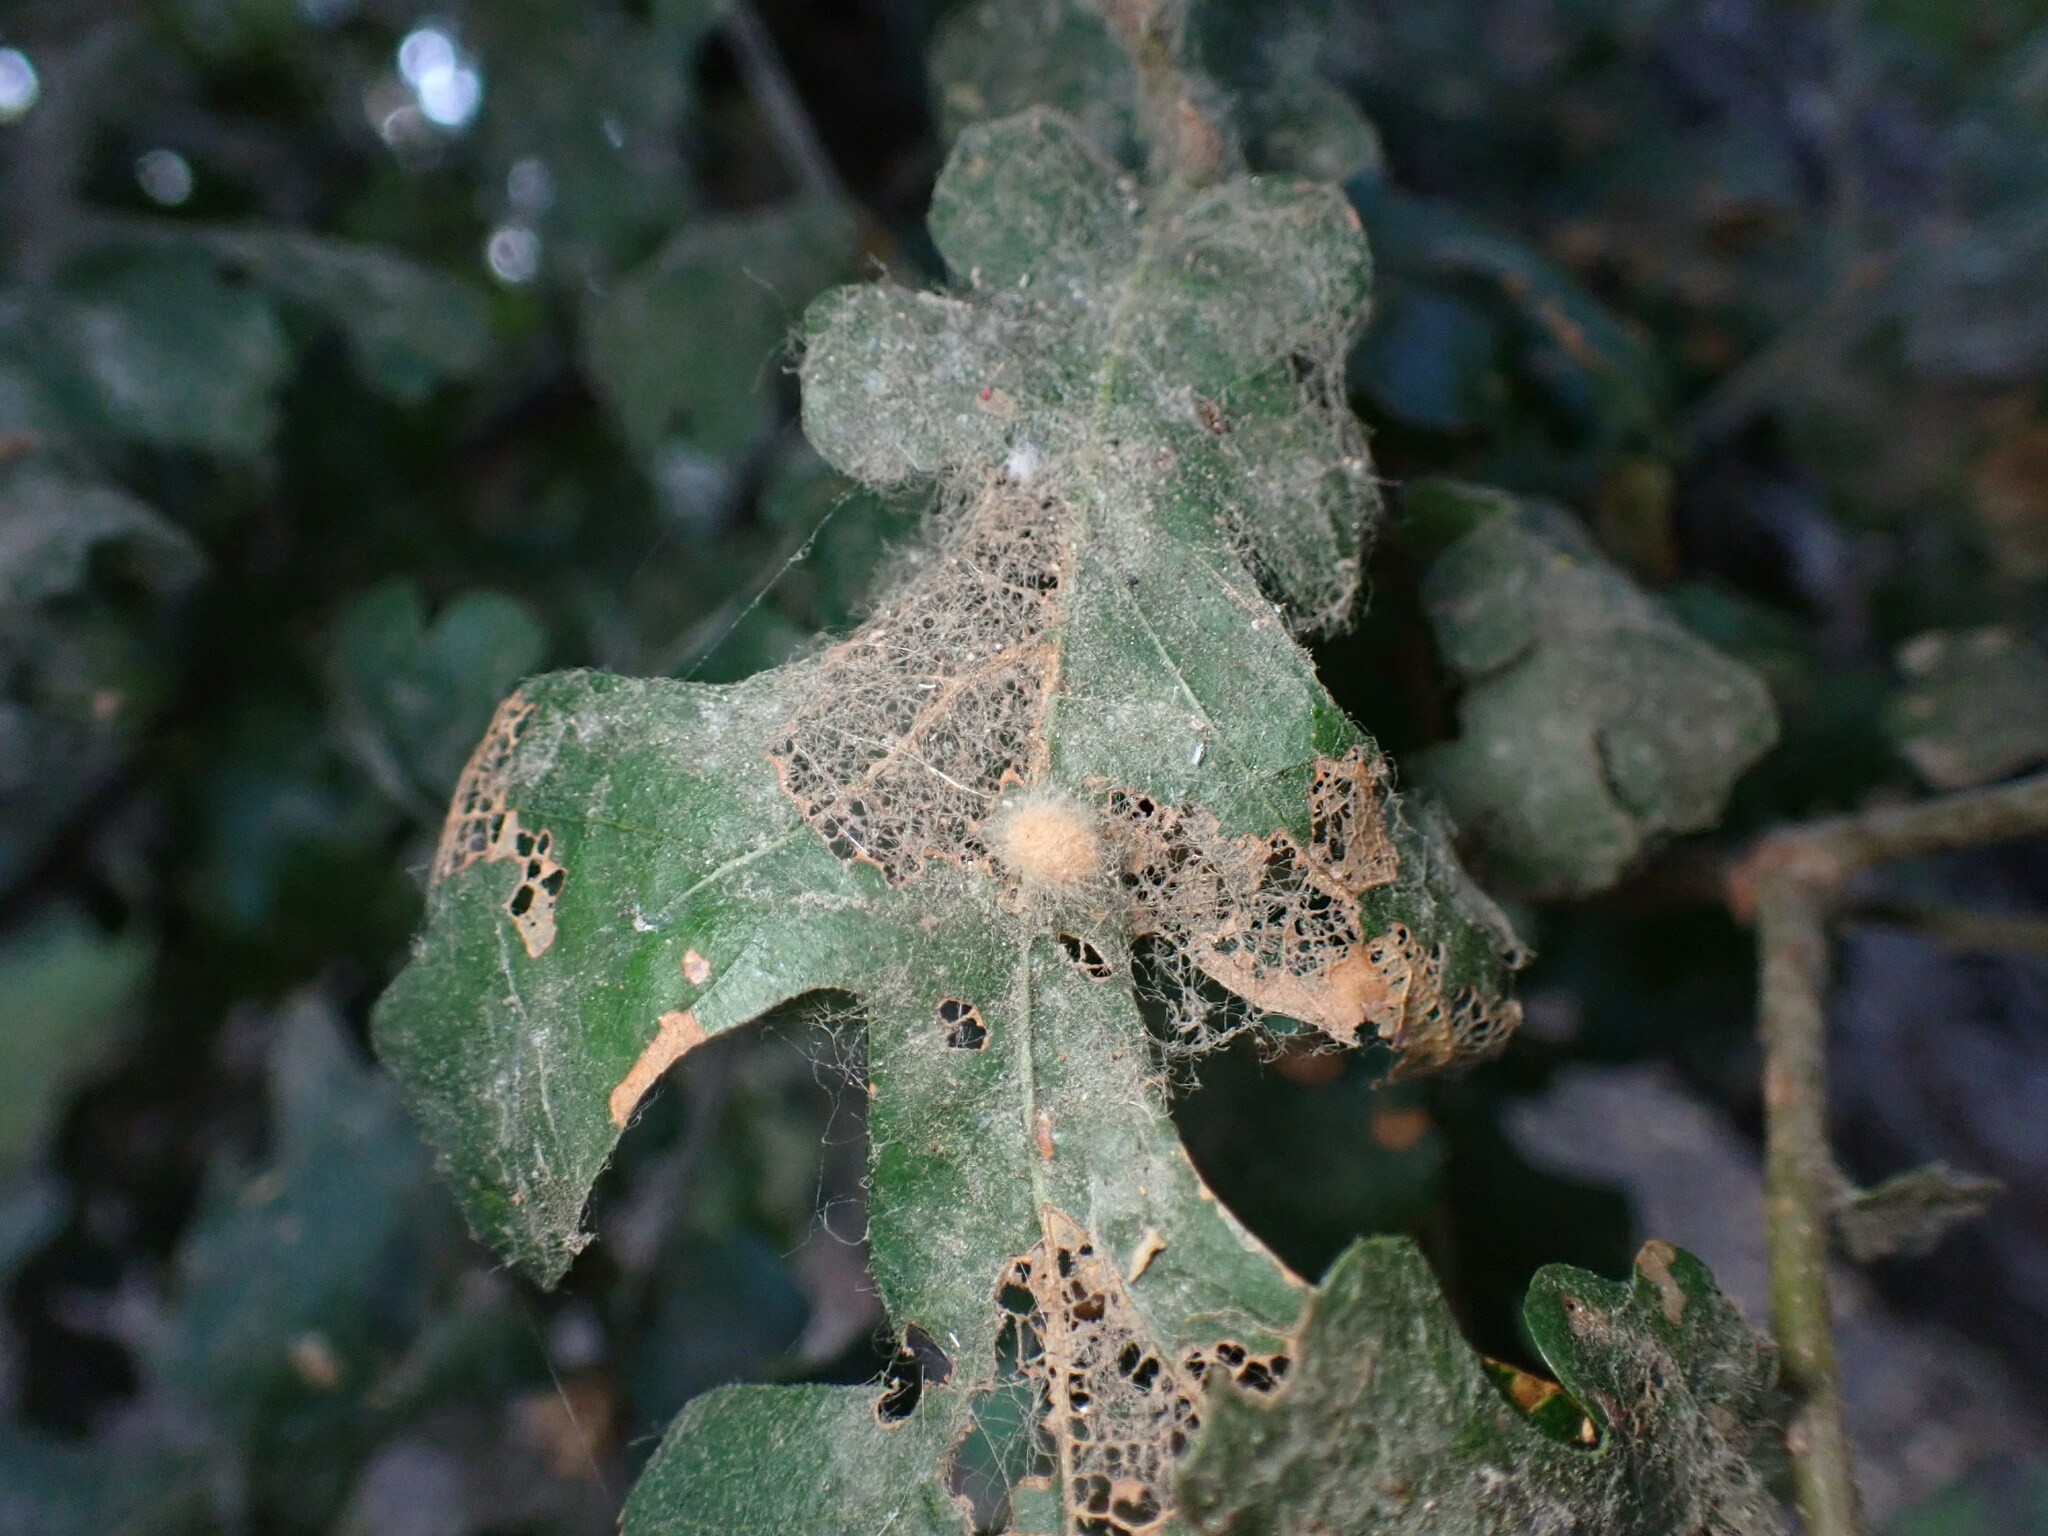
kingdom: Animalia
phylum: Arthropoda
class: Insecta
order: Hymenoptera
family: Cynipidae
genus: Andricus
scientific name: Andricus Druon fullawayi
